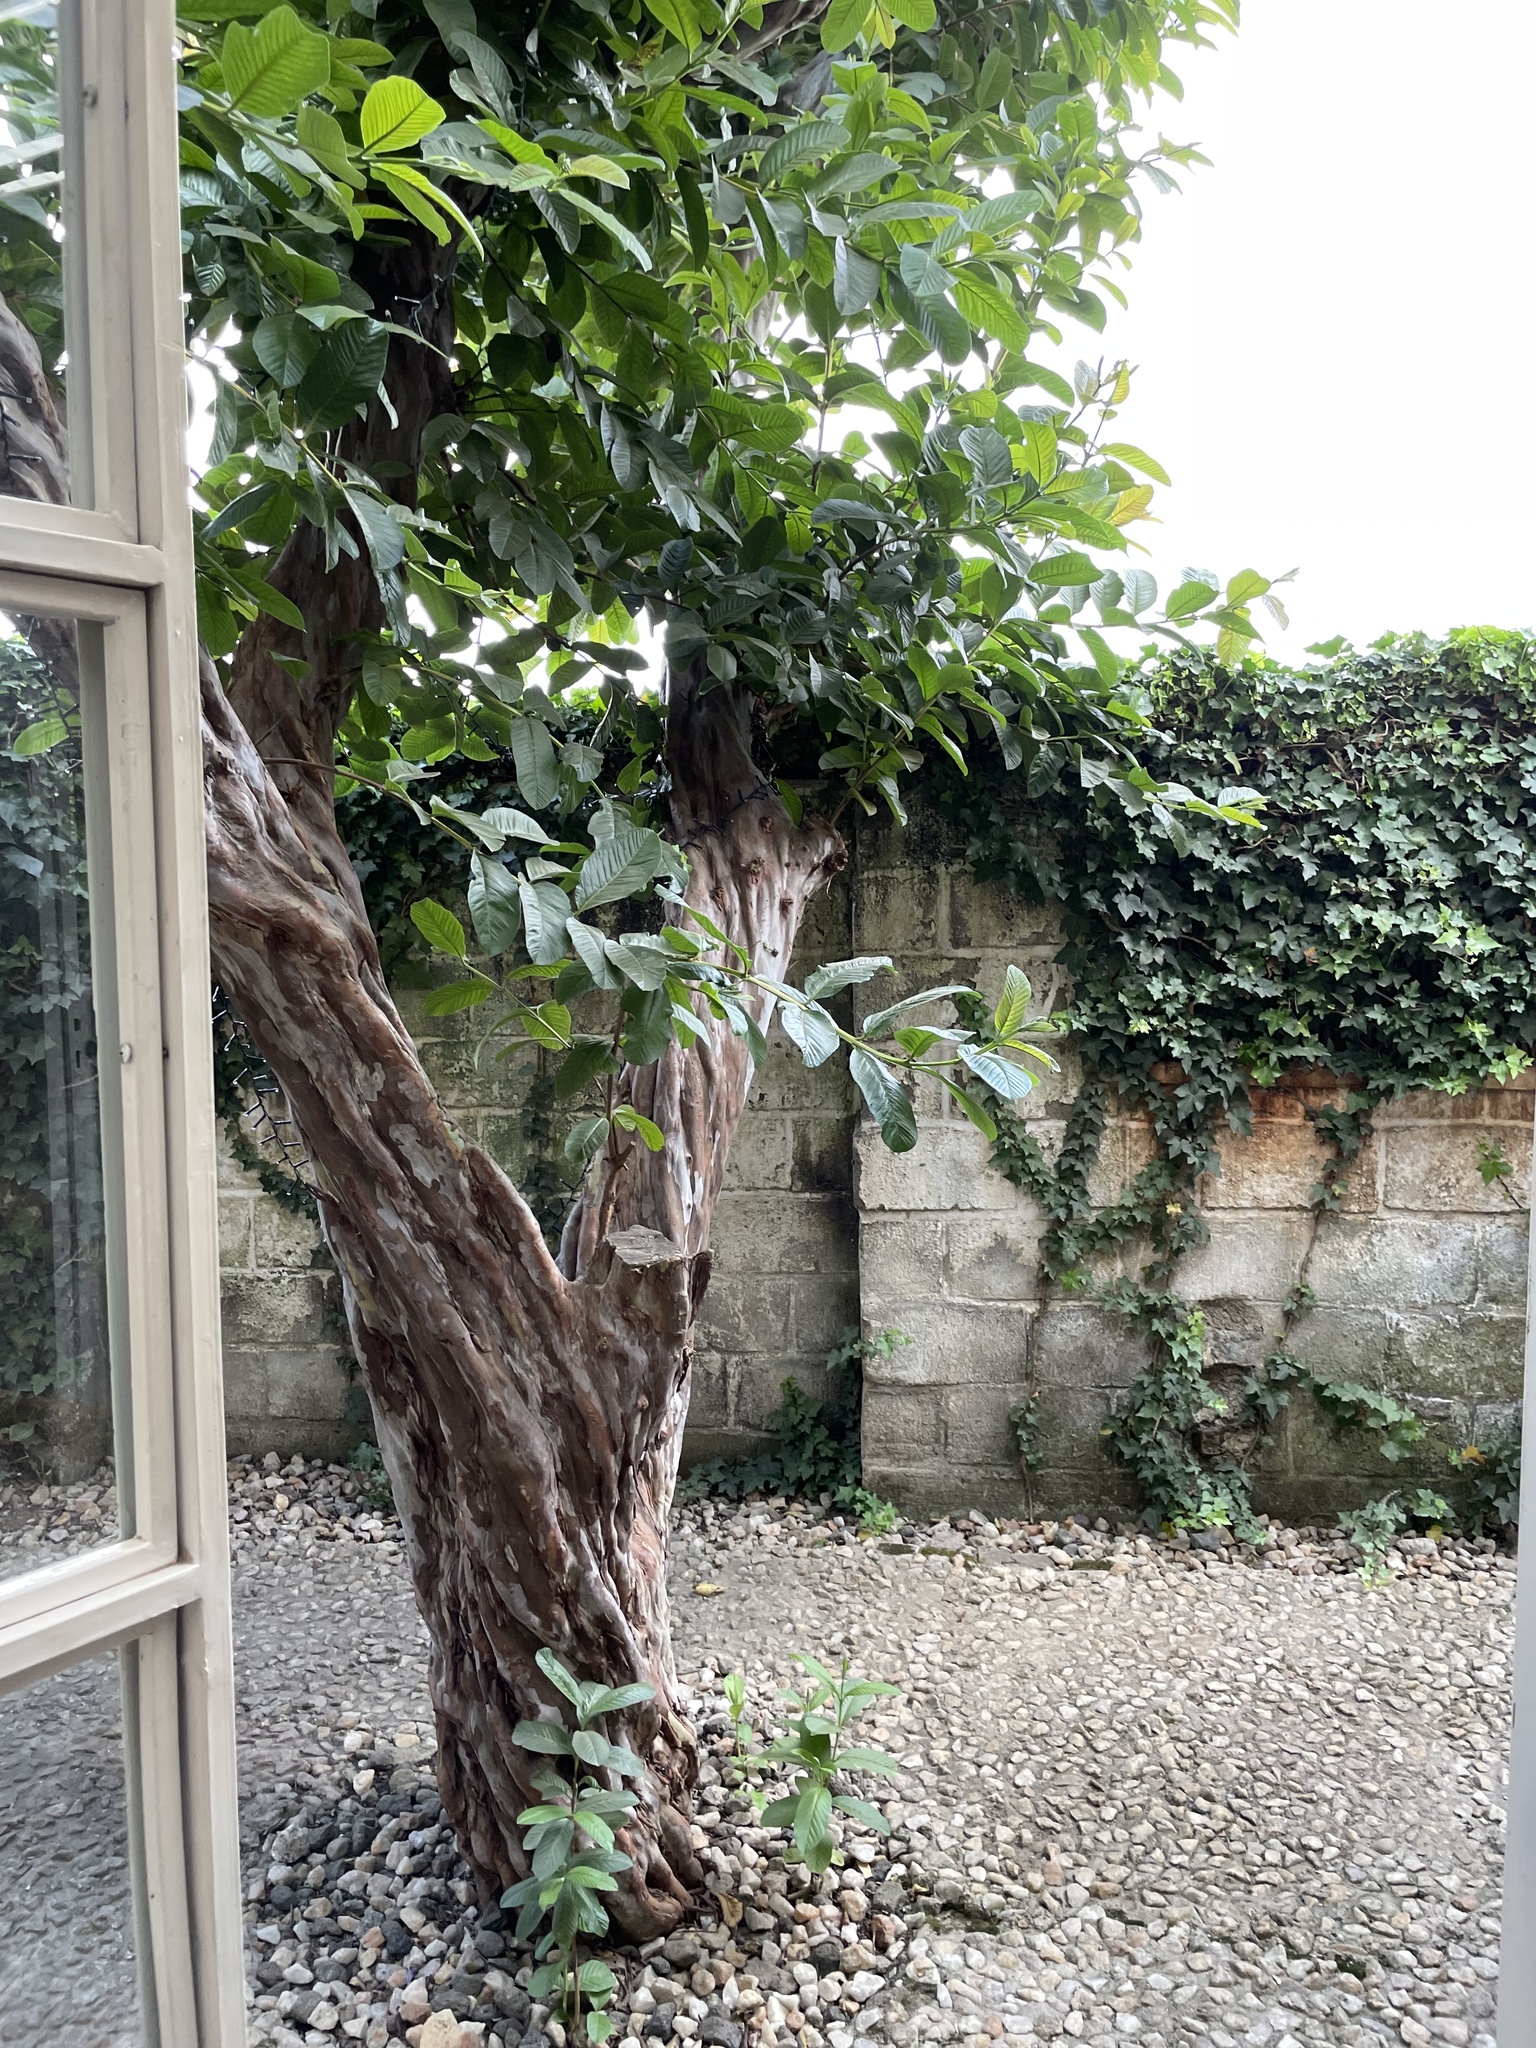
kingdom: Plantae
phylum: Tracheophyta
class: Magnoliopsida
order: Myrtales
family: Myrtaceae
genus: Psidium
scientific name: Psidium guajava
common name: Guava
